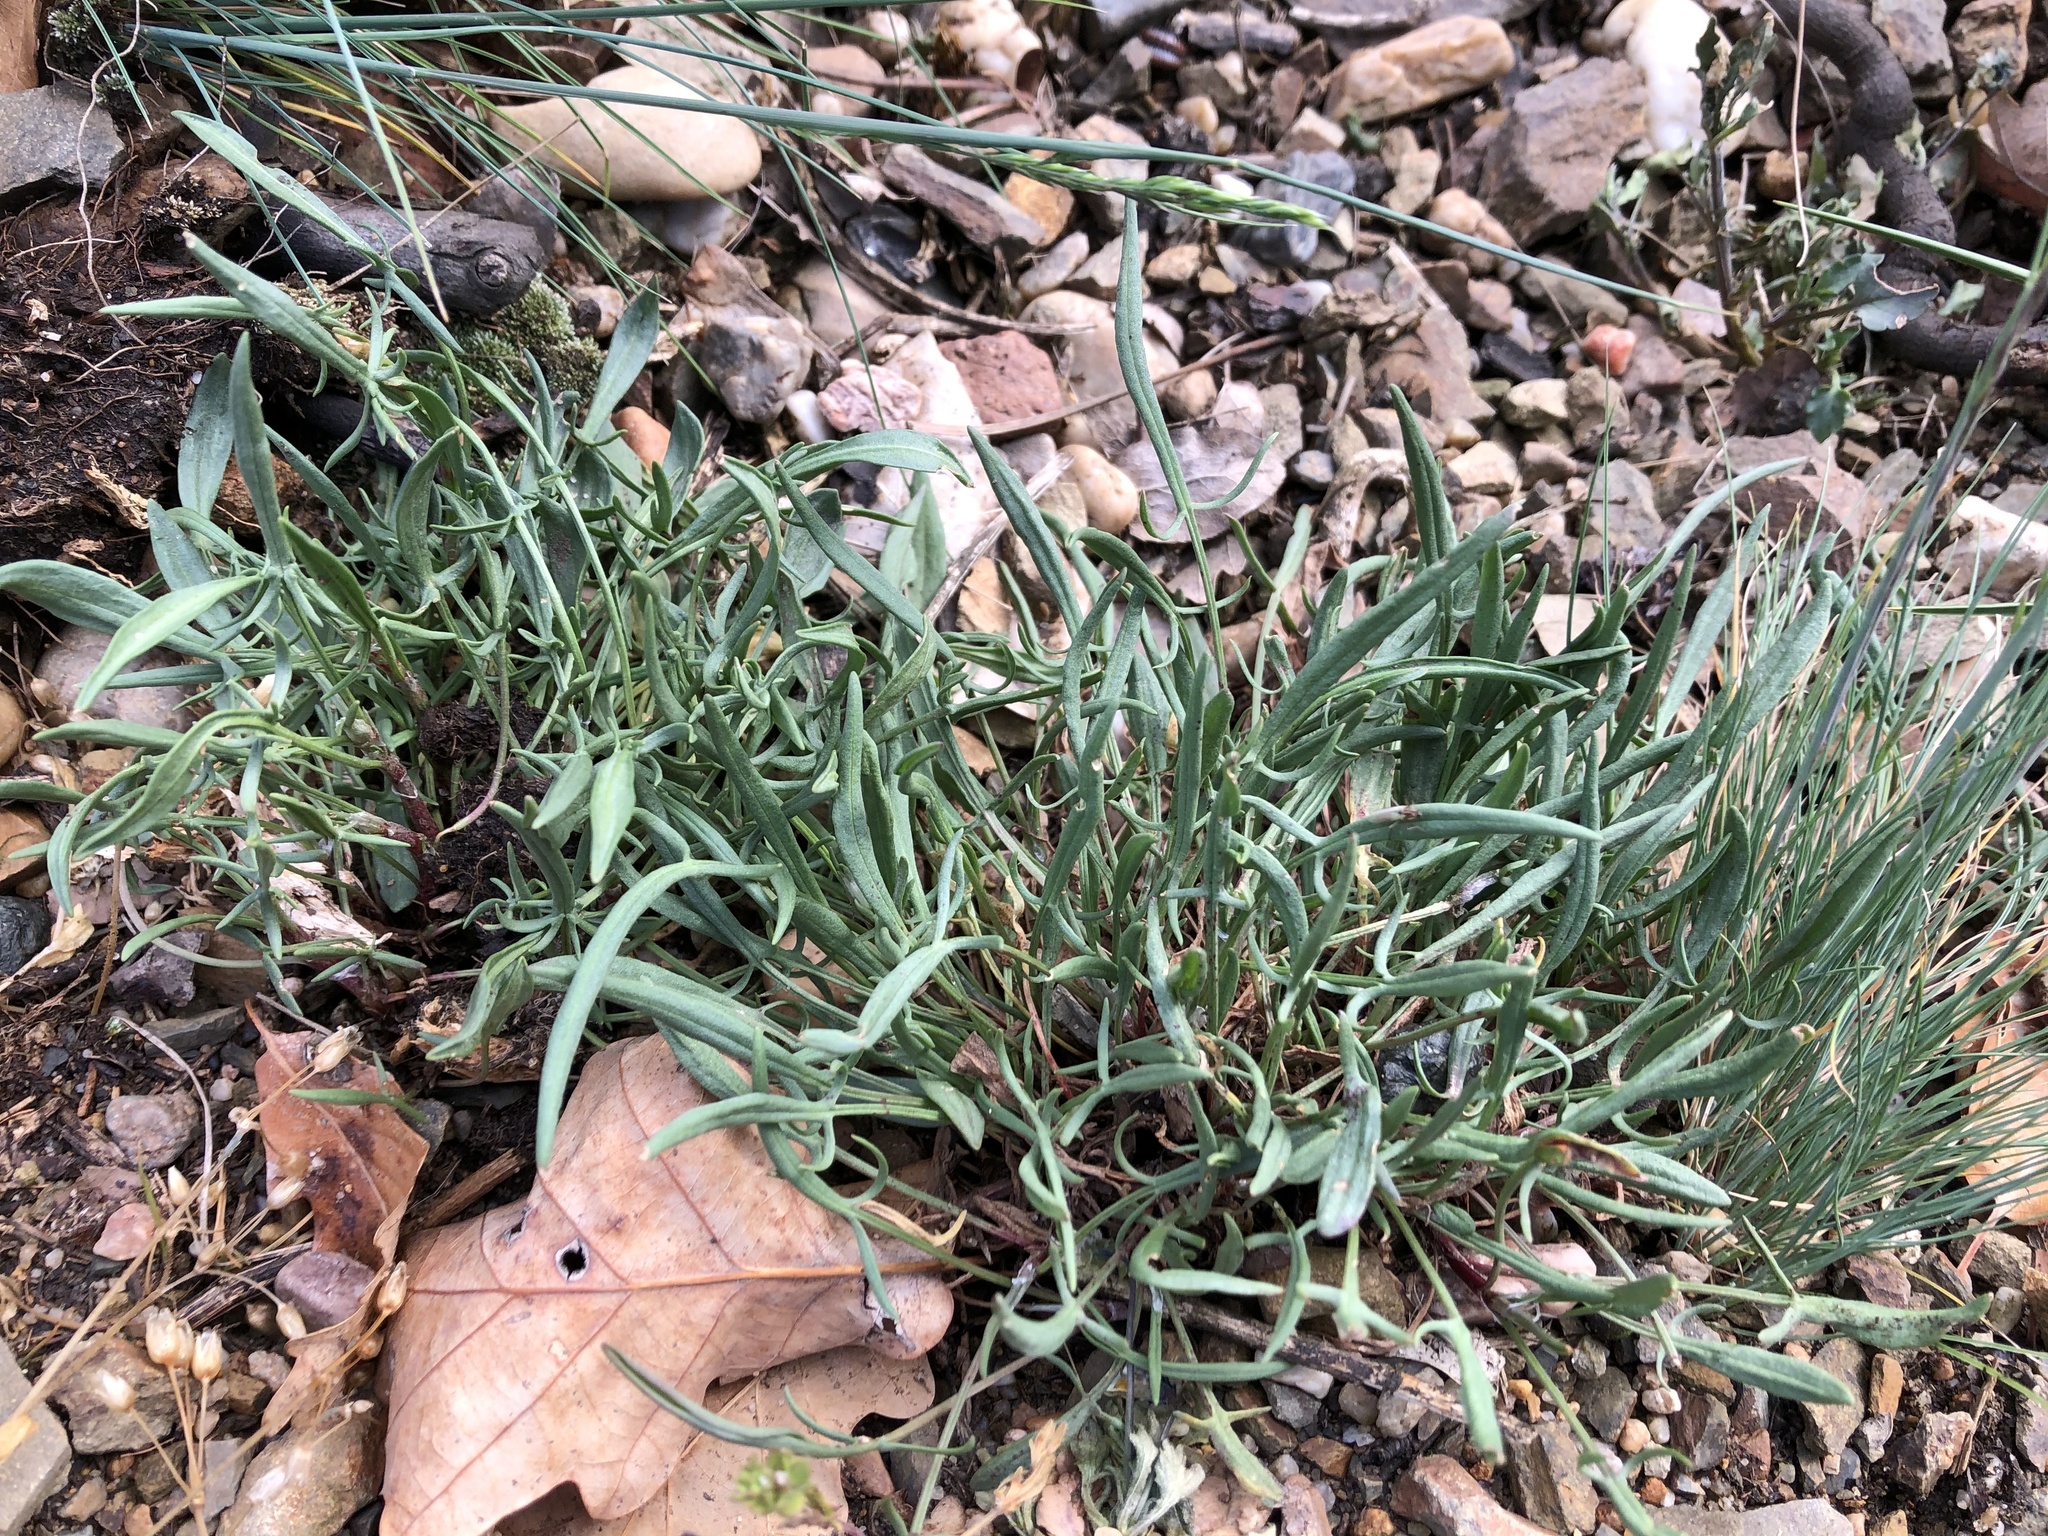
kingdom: Plantae
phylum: Tracheophyta
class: Magnoliopsida
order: Caryophyllales
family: Polygonaceae
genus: Rumex
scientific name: Rumex acetosella
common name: Common sheep sorrel
